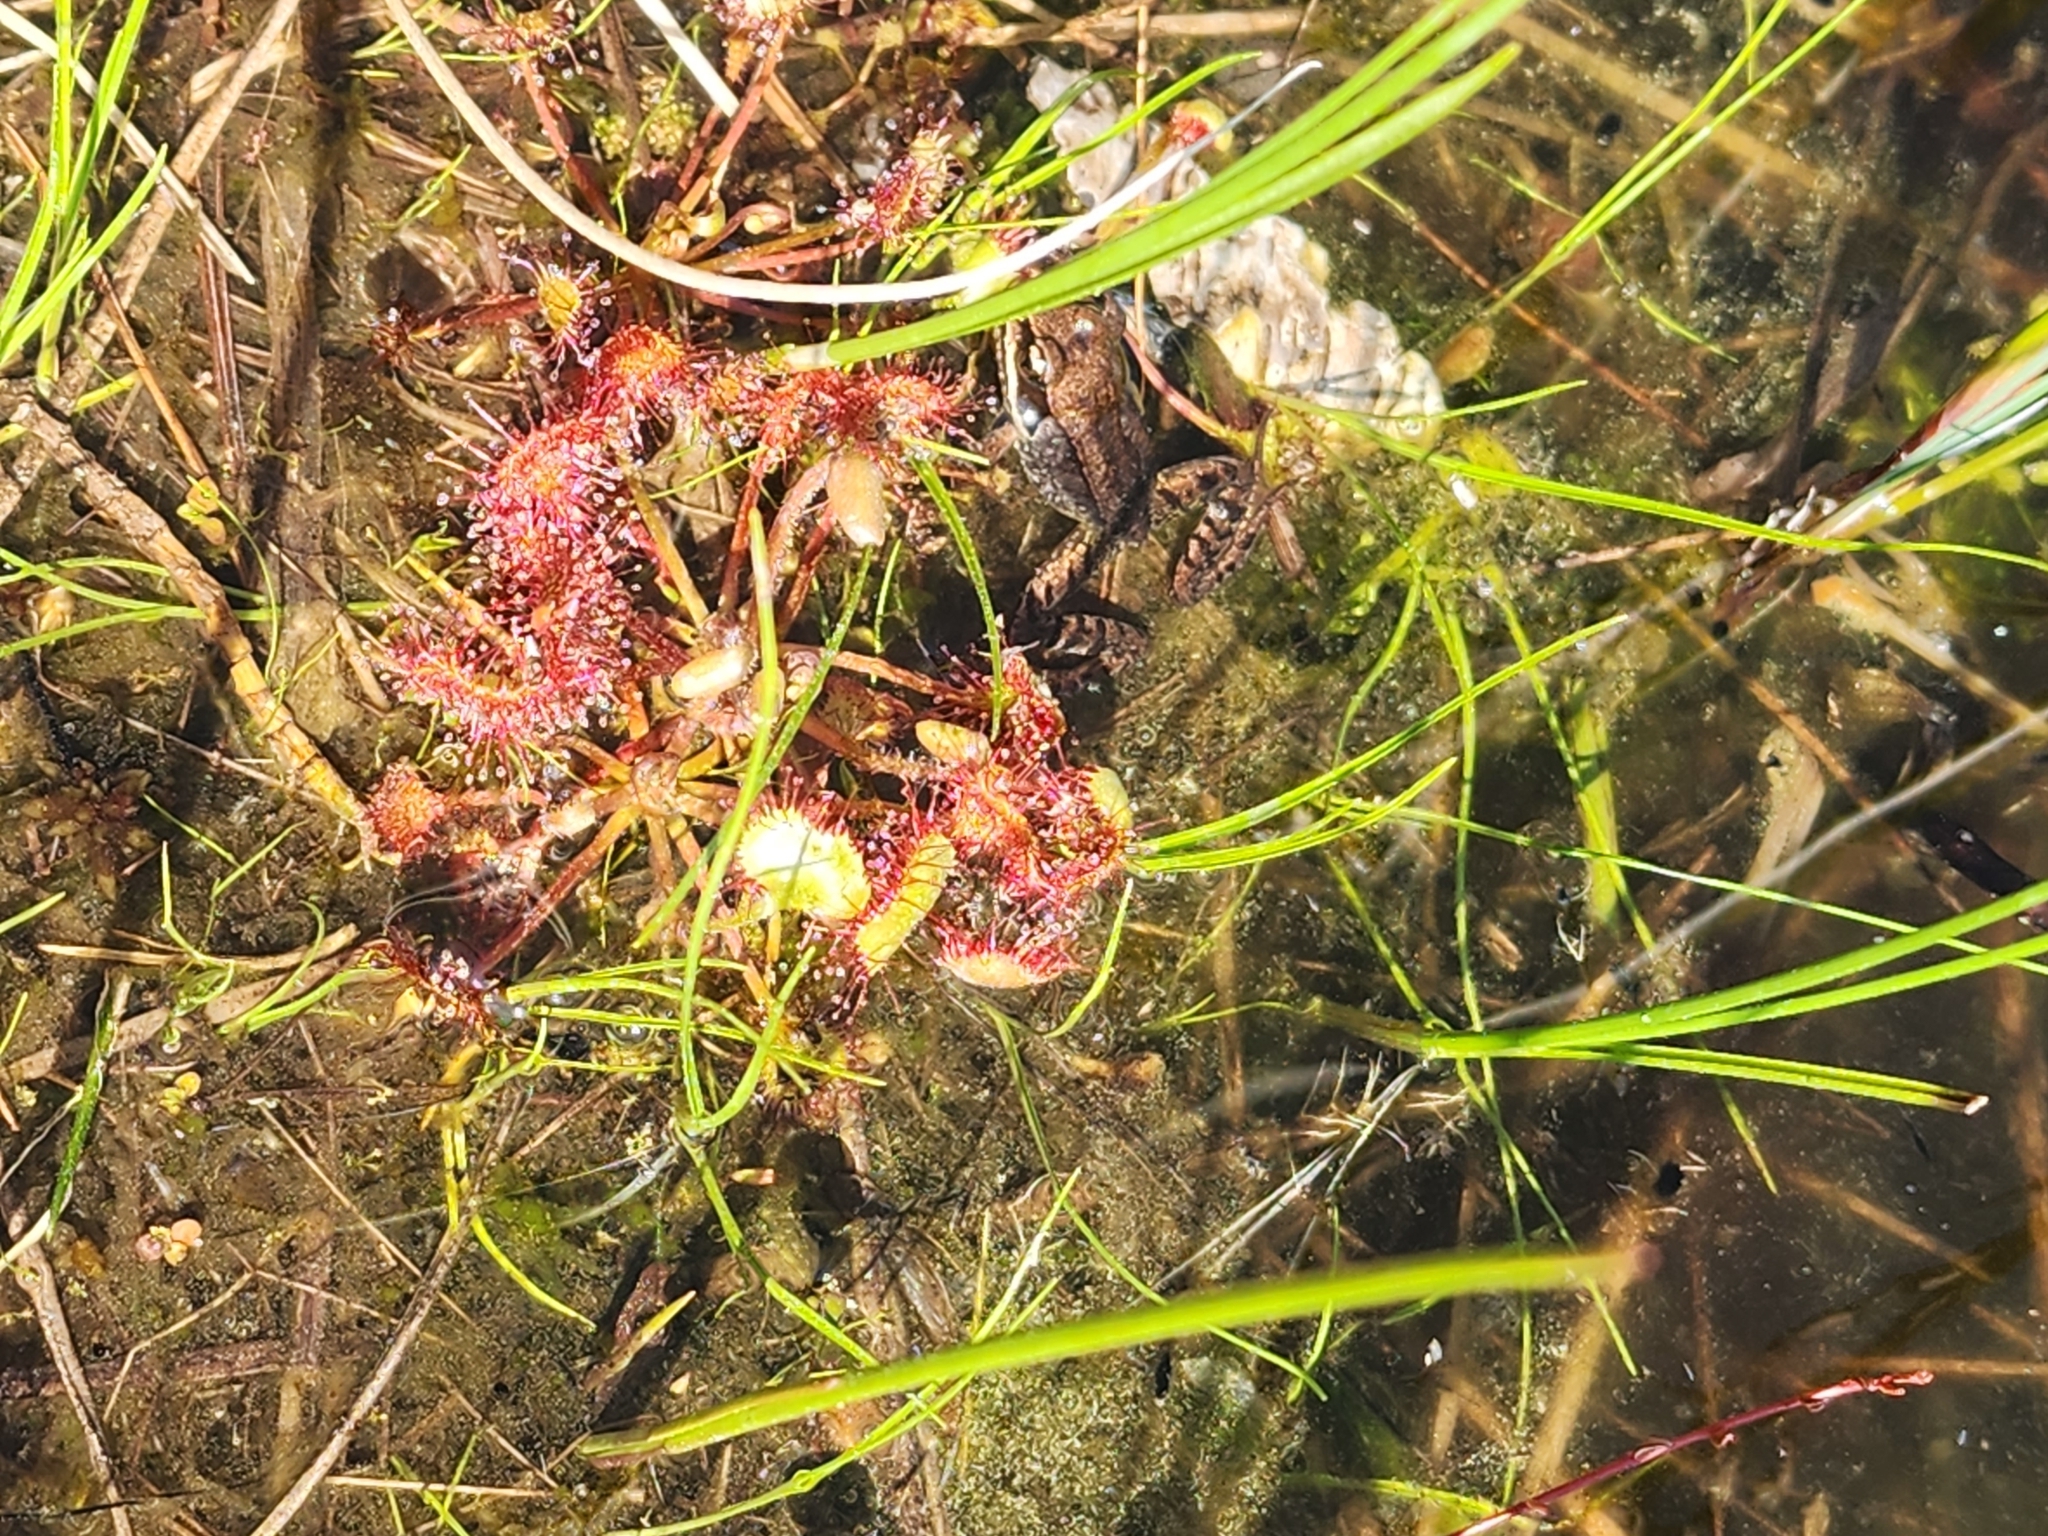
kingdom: Plantae
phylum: Tracheophyta
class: Magnoliopsida
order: Caryophyllales
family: Droseraceae
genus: Drosera
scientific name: Drosera rotundifolia
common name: Round-leaved sundew
